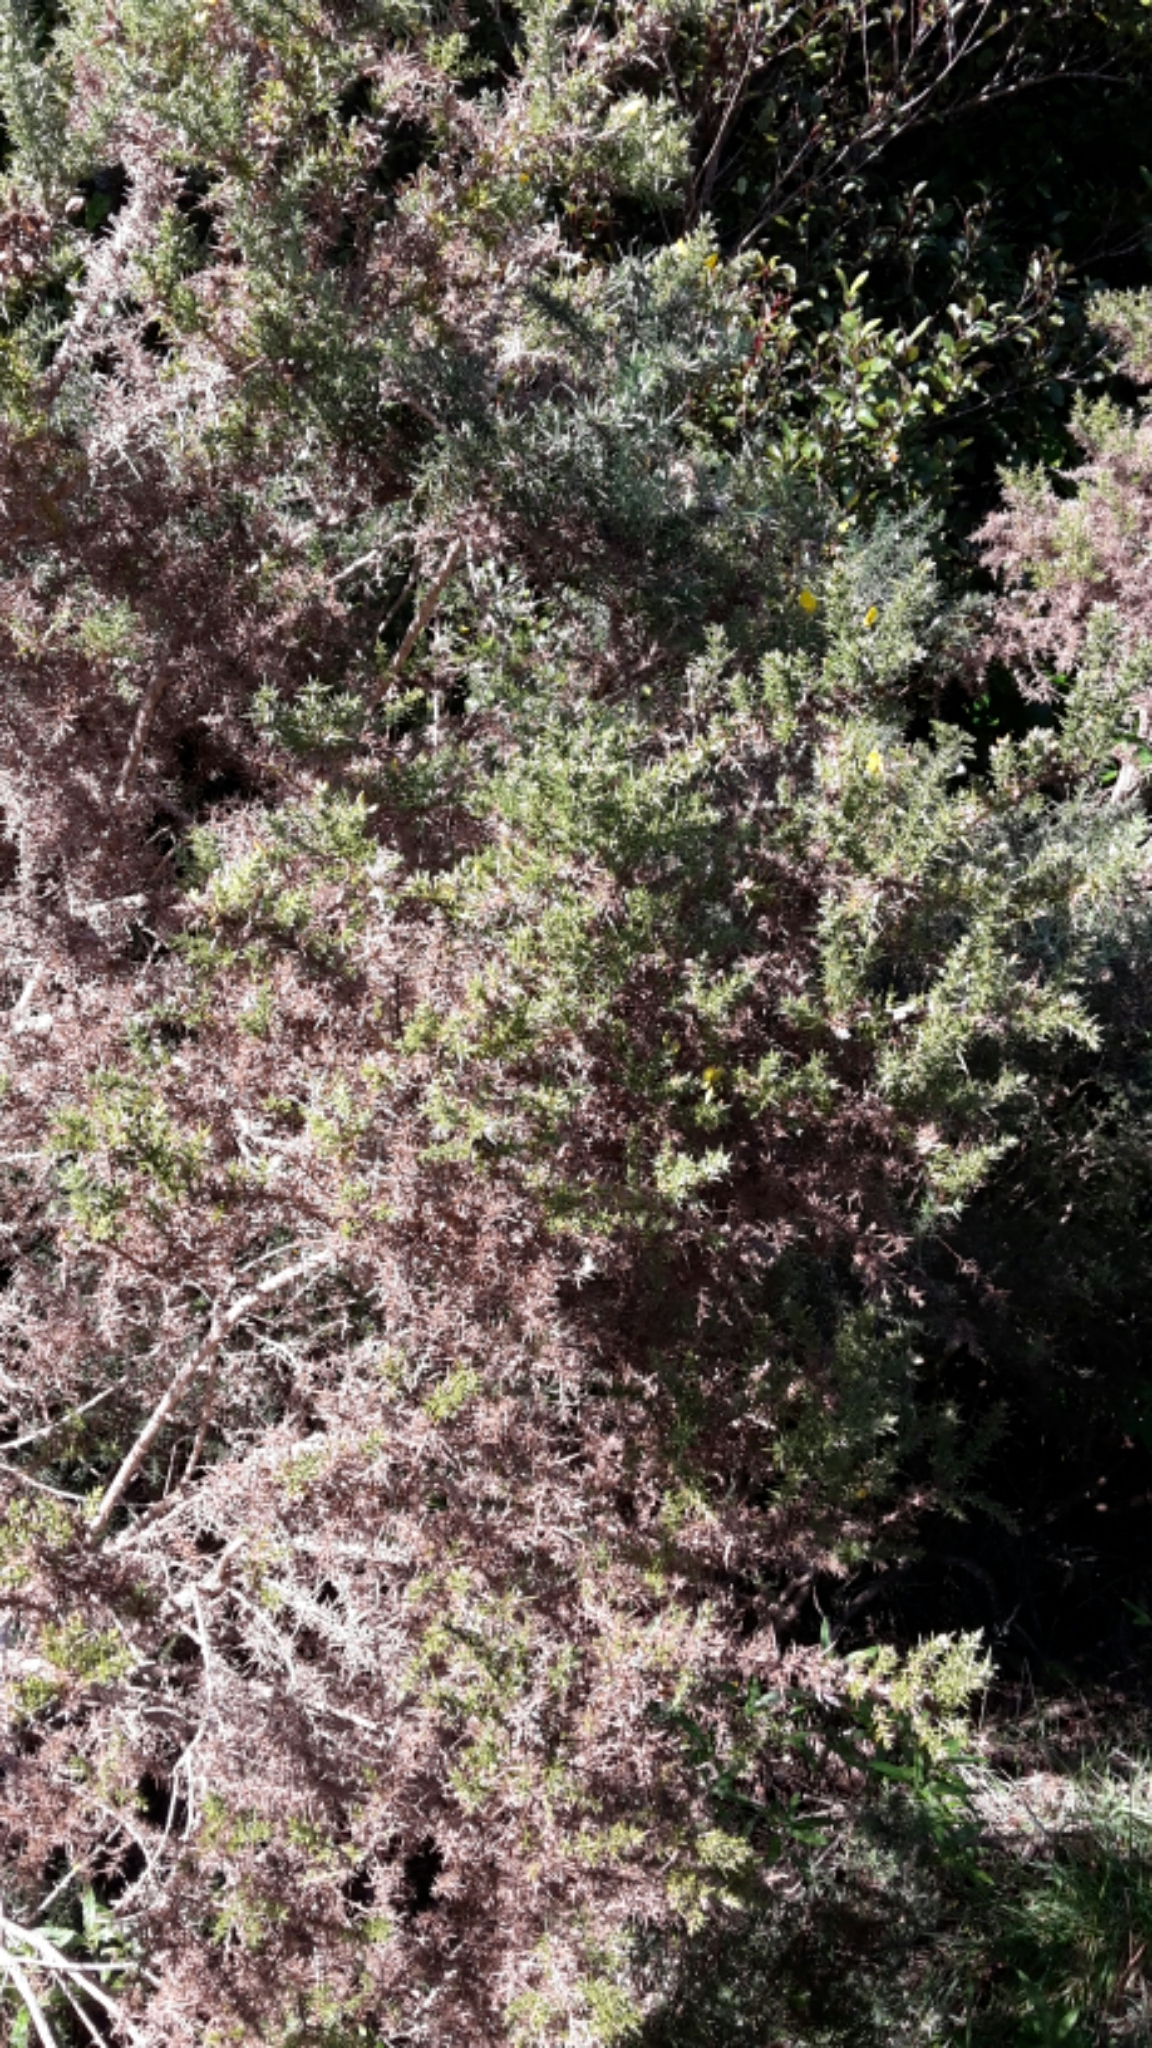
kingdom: Plantae
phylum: Tracheophyta
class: Magnoliopsida
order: Fabales
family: Fabaceae
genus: Ulex
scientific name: Ulex europaeus
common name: Common gorse
